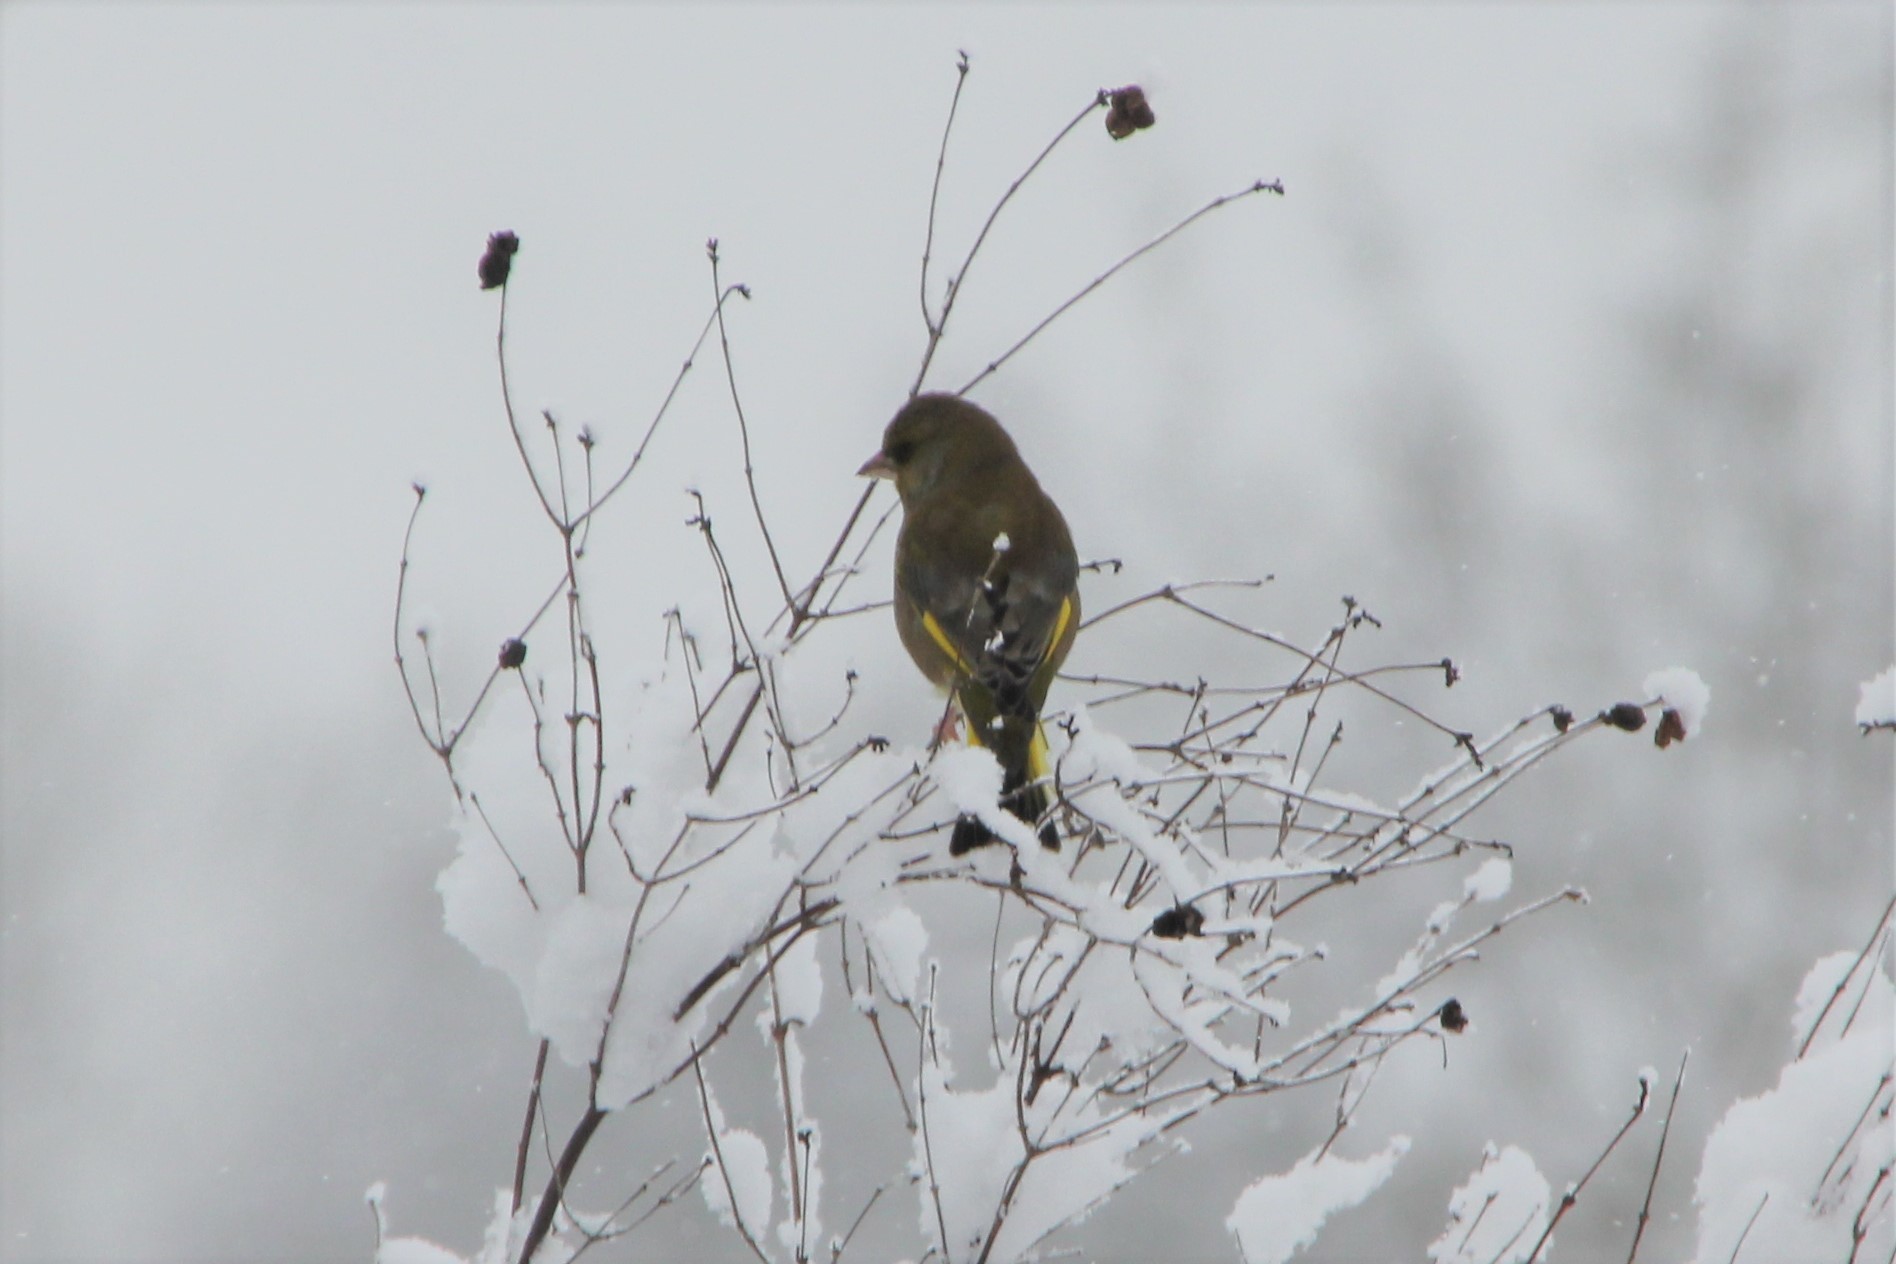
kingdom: Plantae
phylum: Tracheophyta
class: Liliopsida
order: Poales
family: Poaceae
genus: Chloris
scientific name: Chloris chloris
